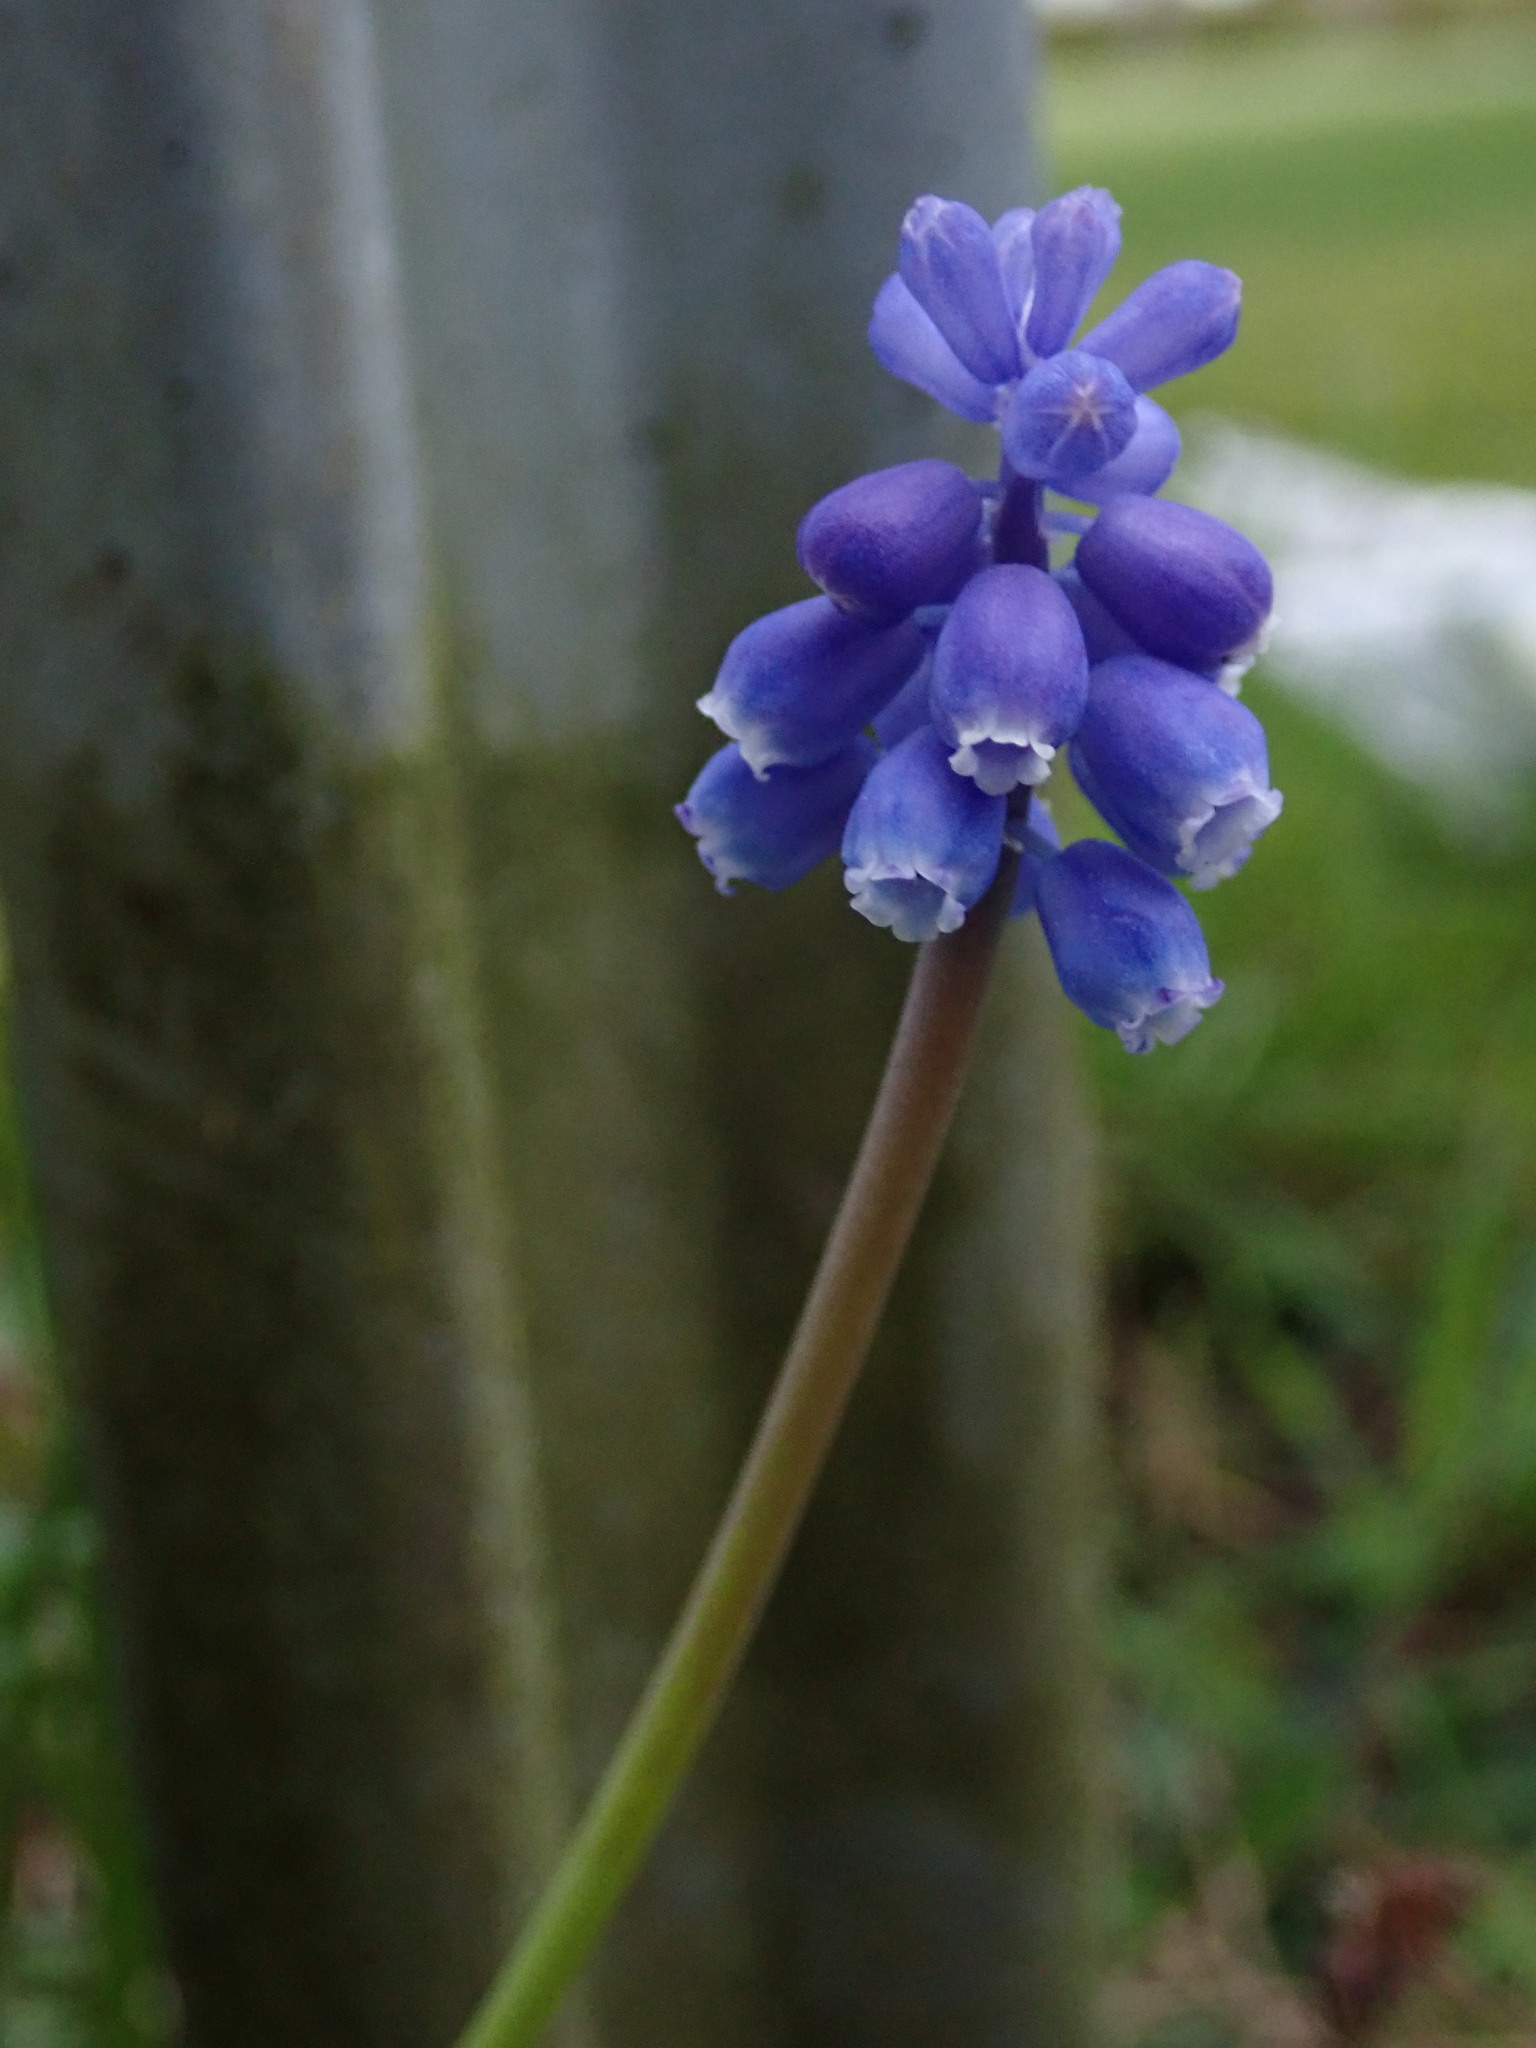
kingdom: Plantae
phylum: Tracheophyta
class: Liliopsida
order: Asparagales
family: Asparagaceae
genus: Muscari
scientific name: Muscari armeniacum
